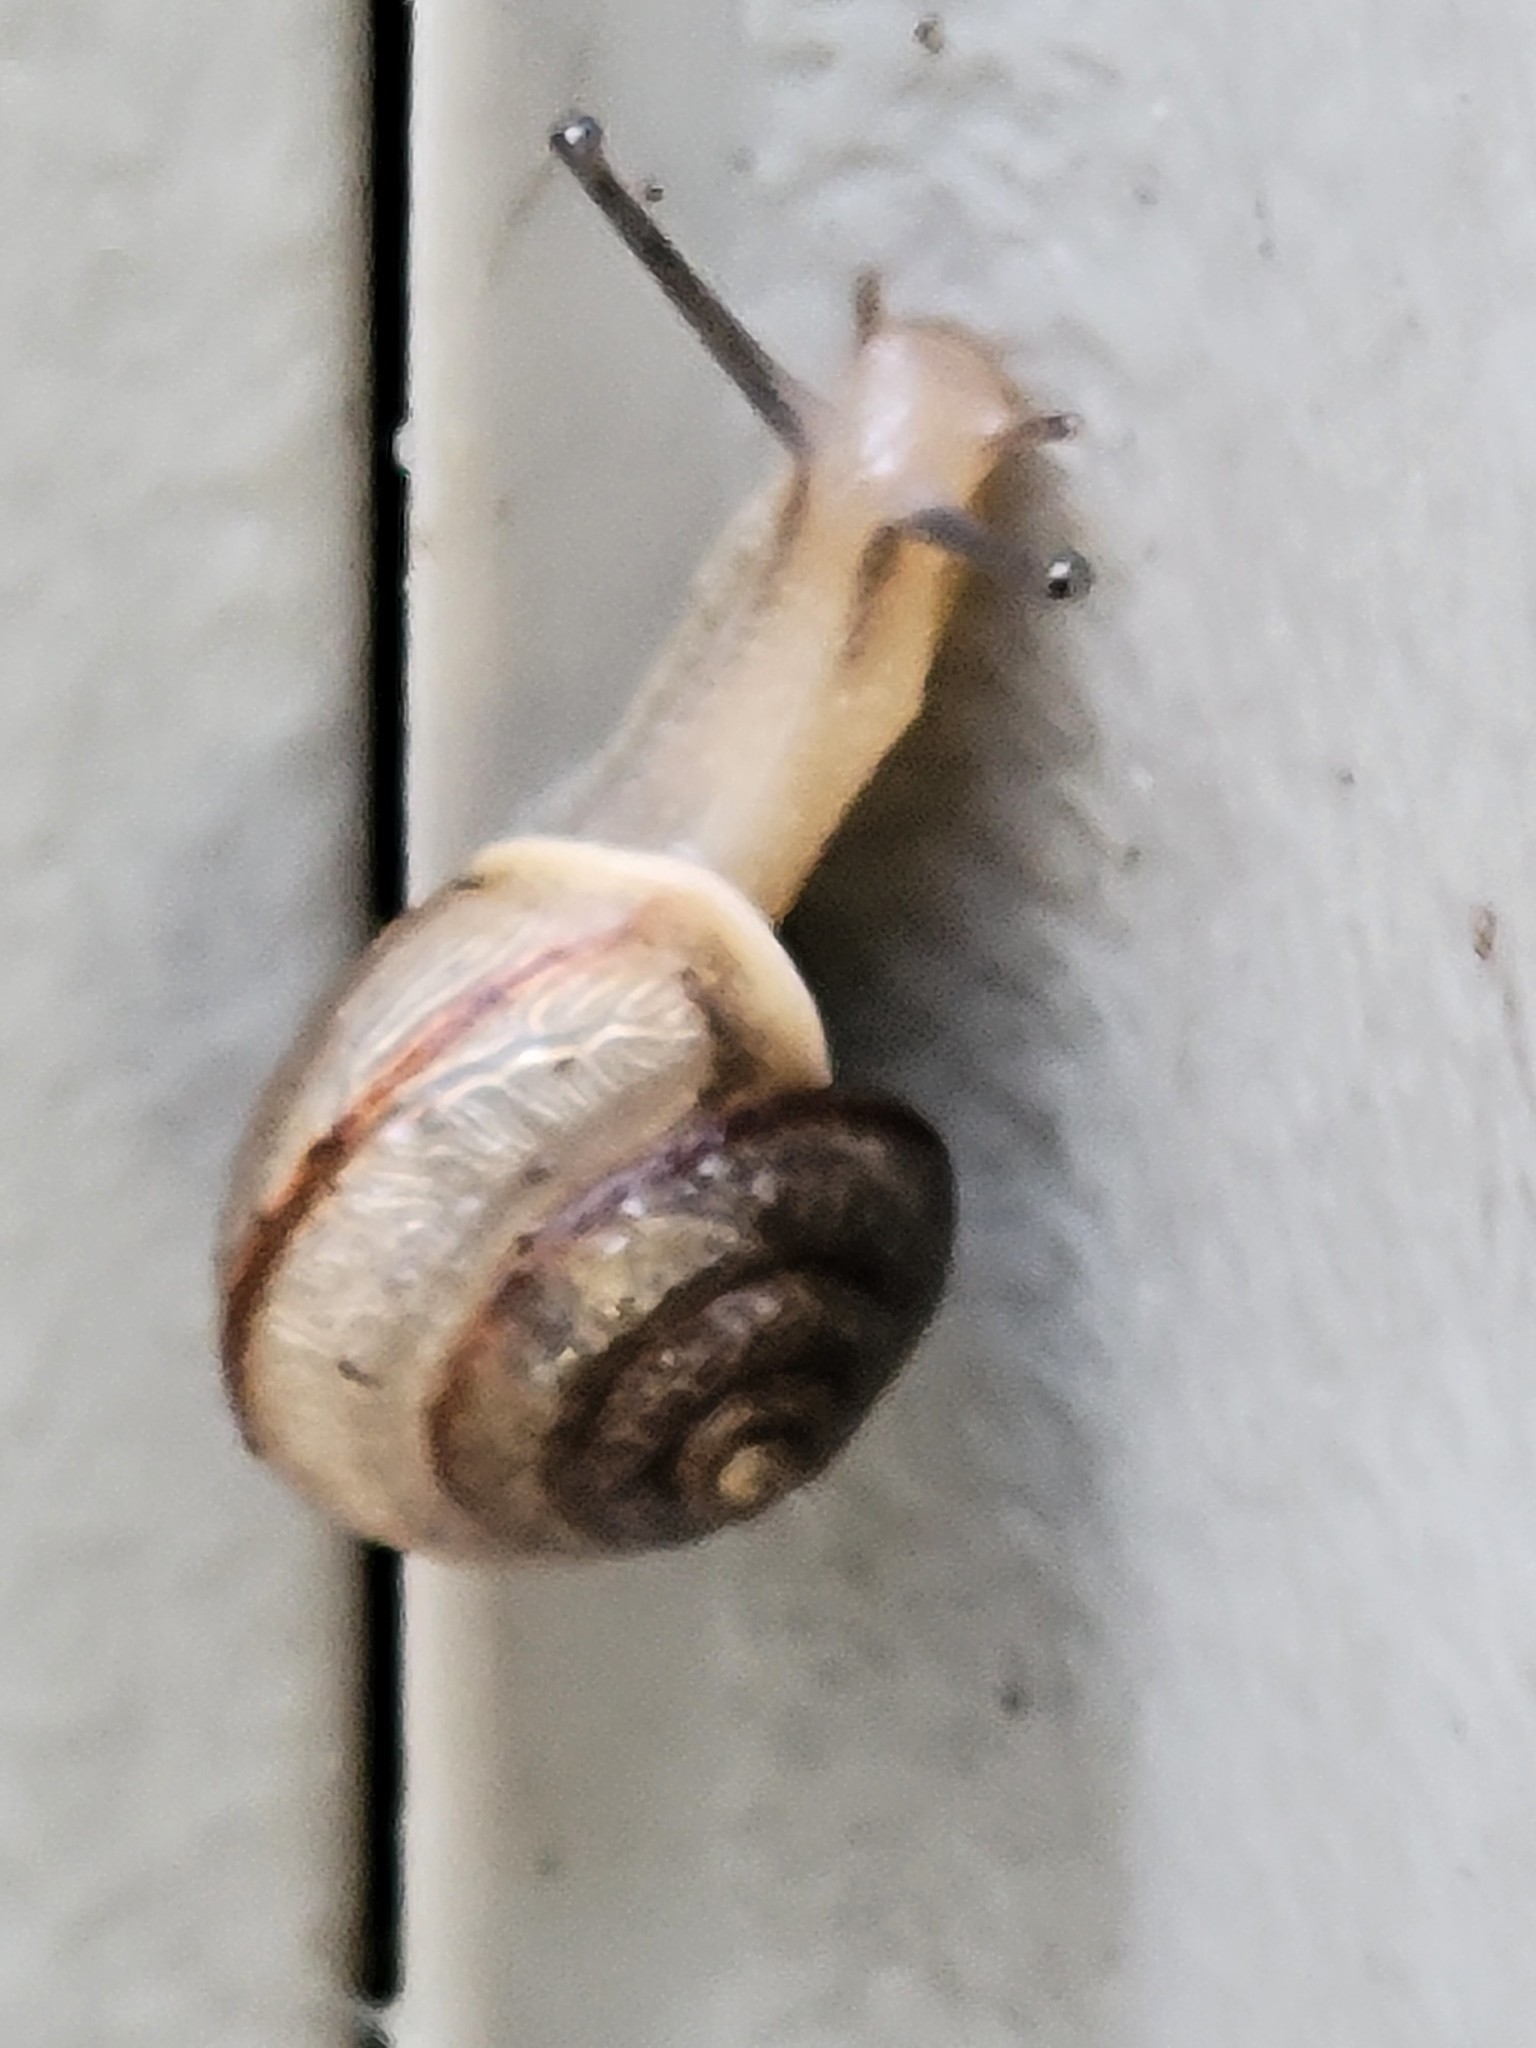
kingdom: Animalia
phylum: Mollusca
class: Gastropoda
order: Stylommatophora
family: Camaenidae
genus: Bradybaena
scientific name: Bradybaena similaris
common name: Asian trampsnail
